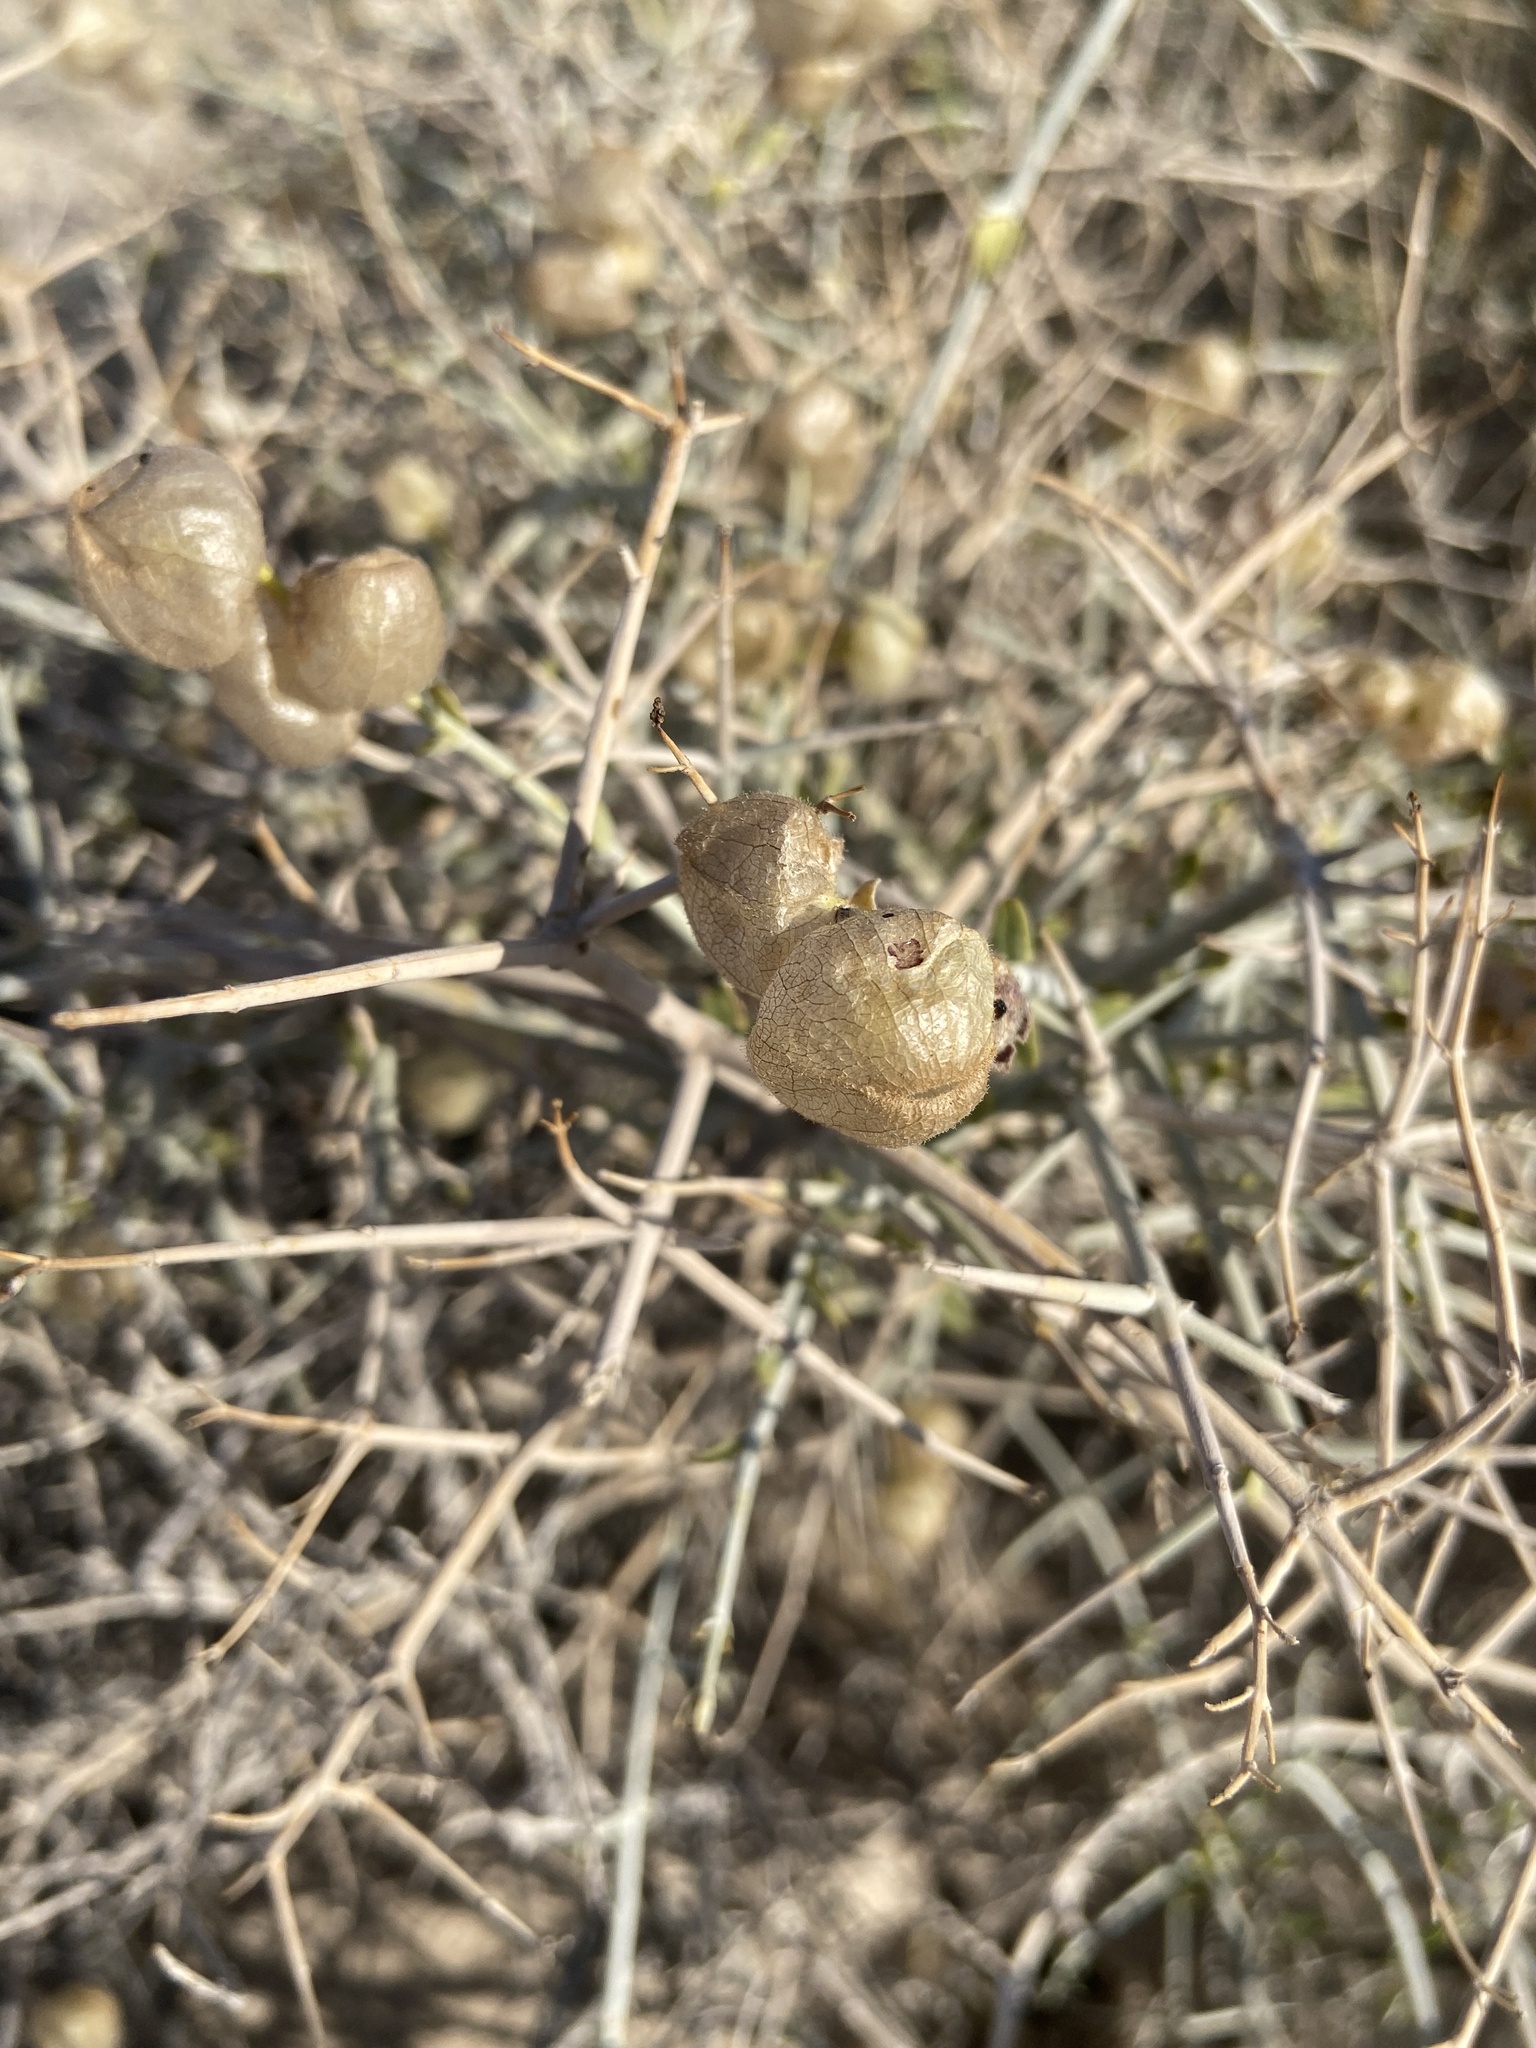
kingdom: Plantae
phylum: Tracheophyta
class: Magnoliopsida
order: Lamiales
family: Lamiaceae
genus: Scutellaria
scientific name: Scutellaria mexicana
